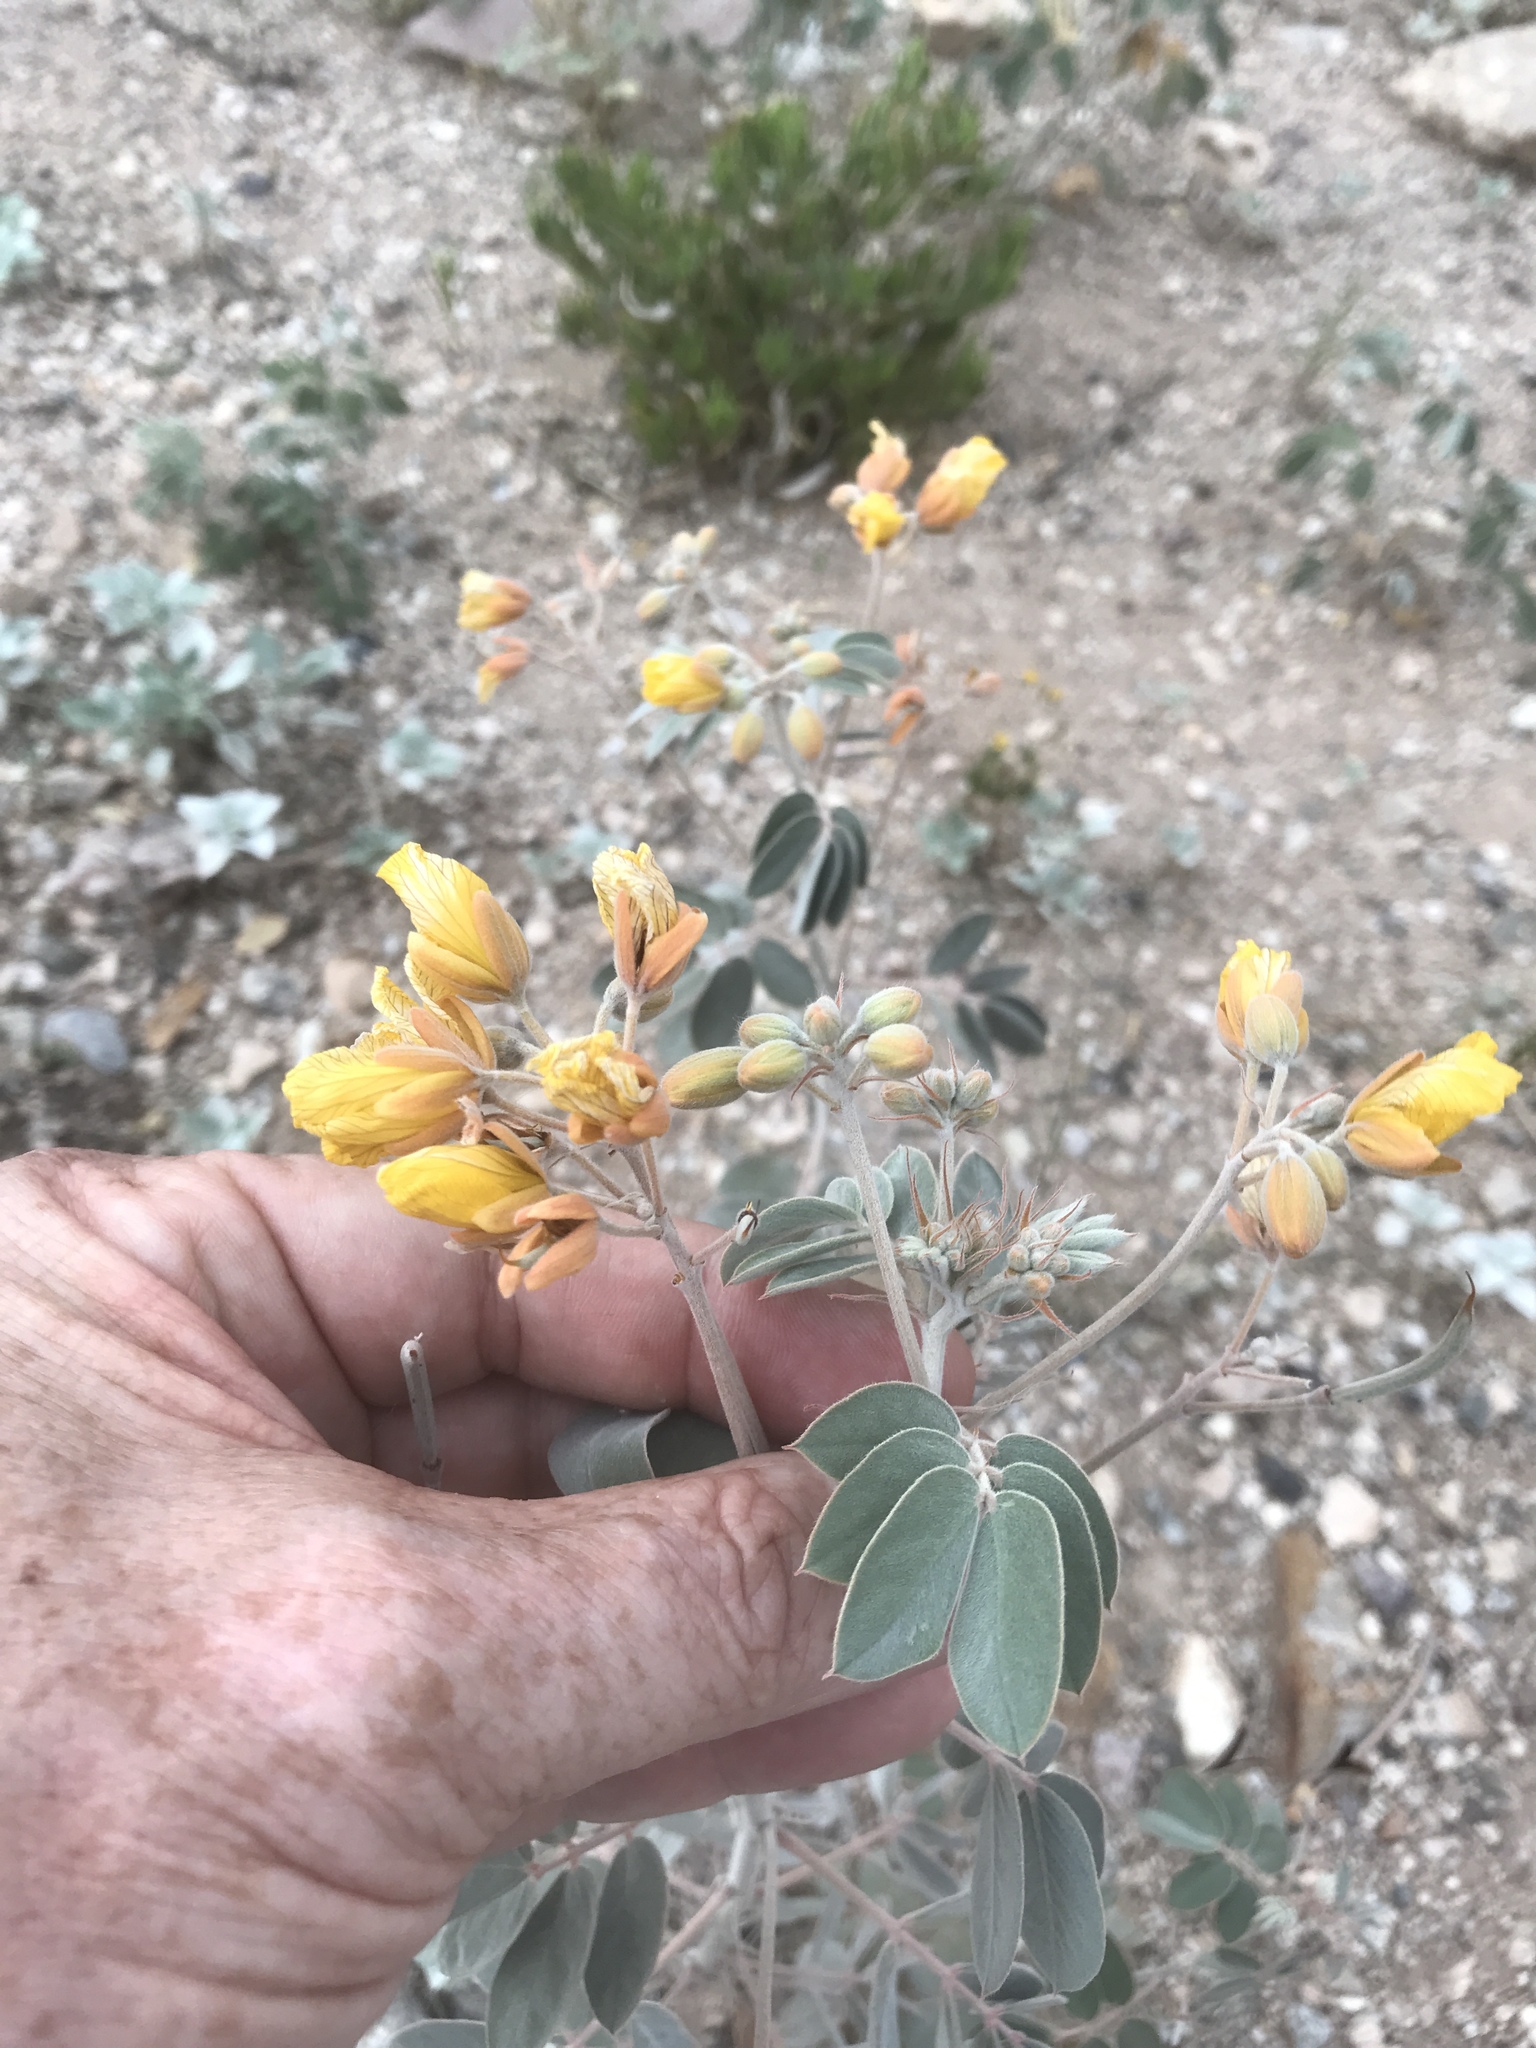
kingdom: Plantae
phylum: Tracheophyta
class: Magnoliopsida
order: Fabales
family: Fabaceae
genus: Senna
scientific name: Senna covesii
